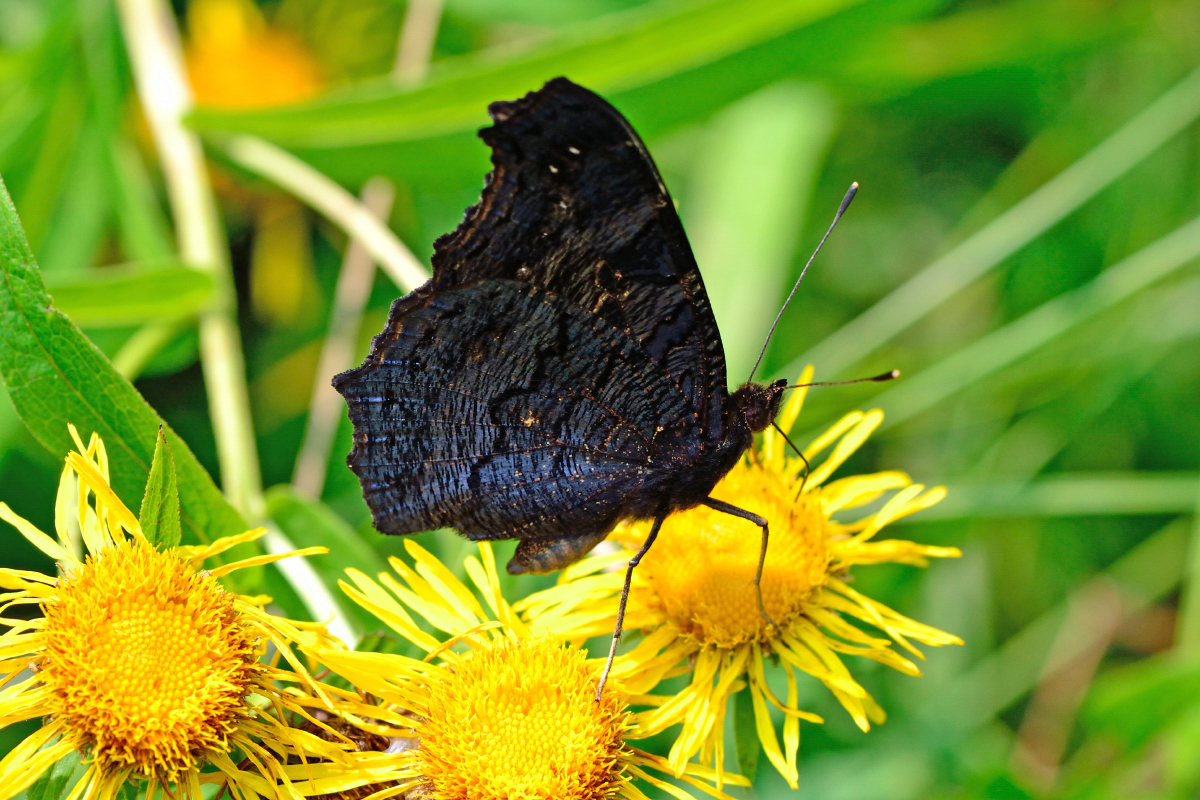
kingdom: Animalia
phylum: Arthropoda
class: Insecta
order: Lepidoptera
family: Nymphalidae
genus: Aglais
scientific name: Aglais io
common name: Peacock
